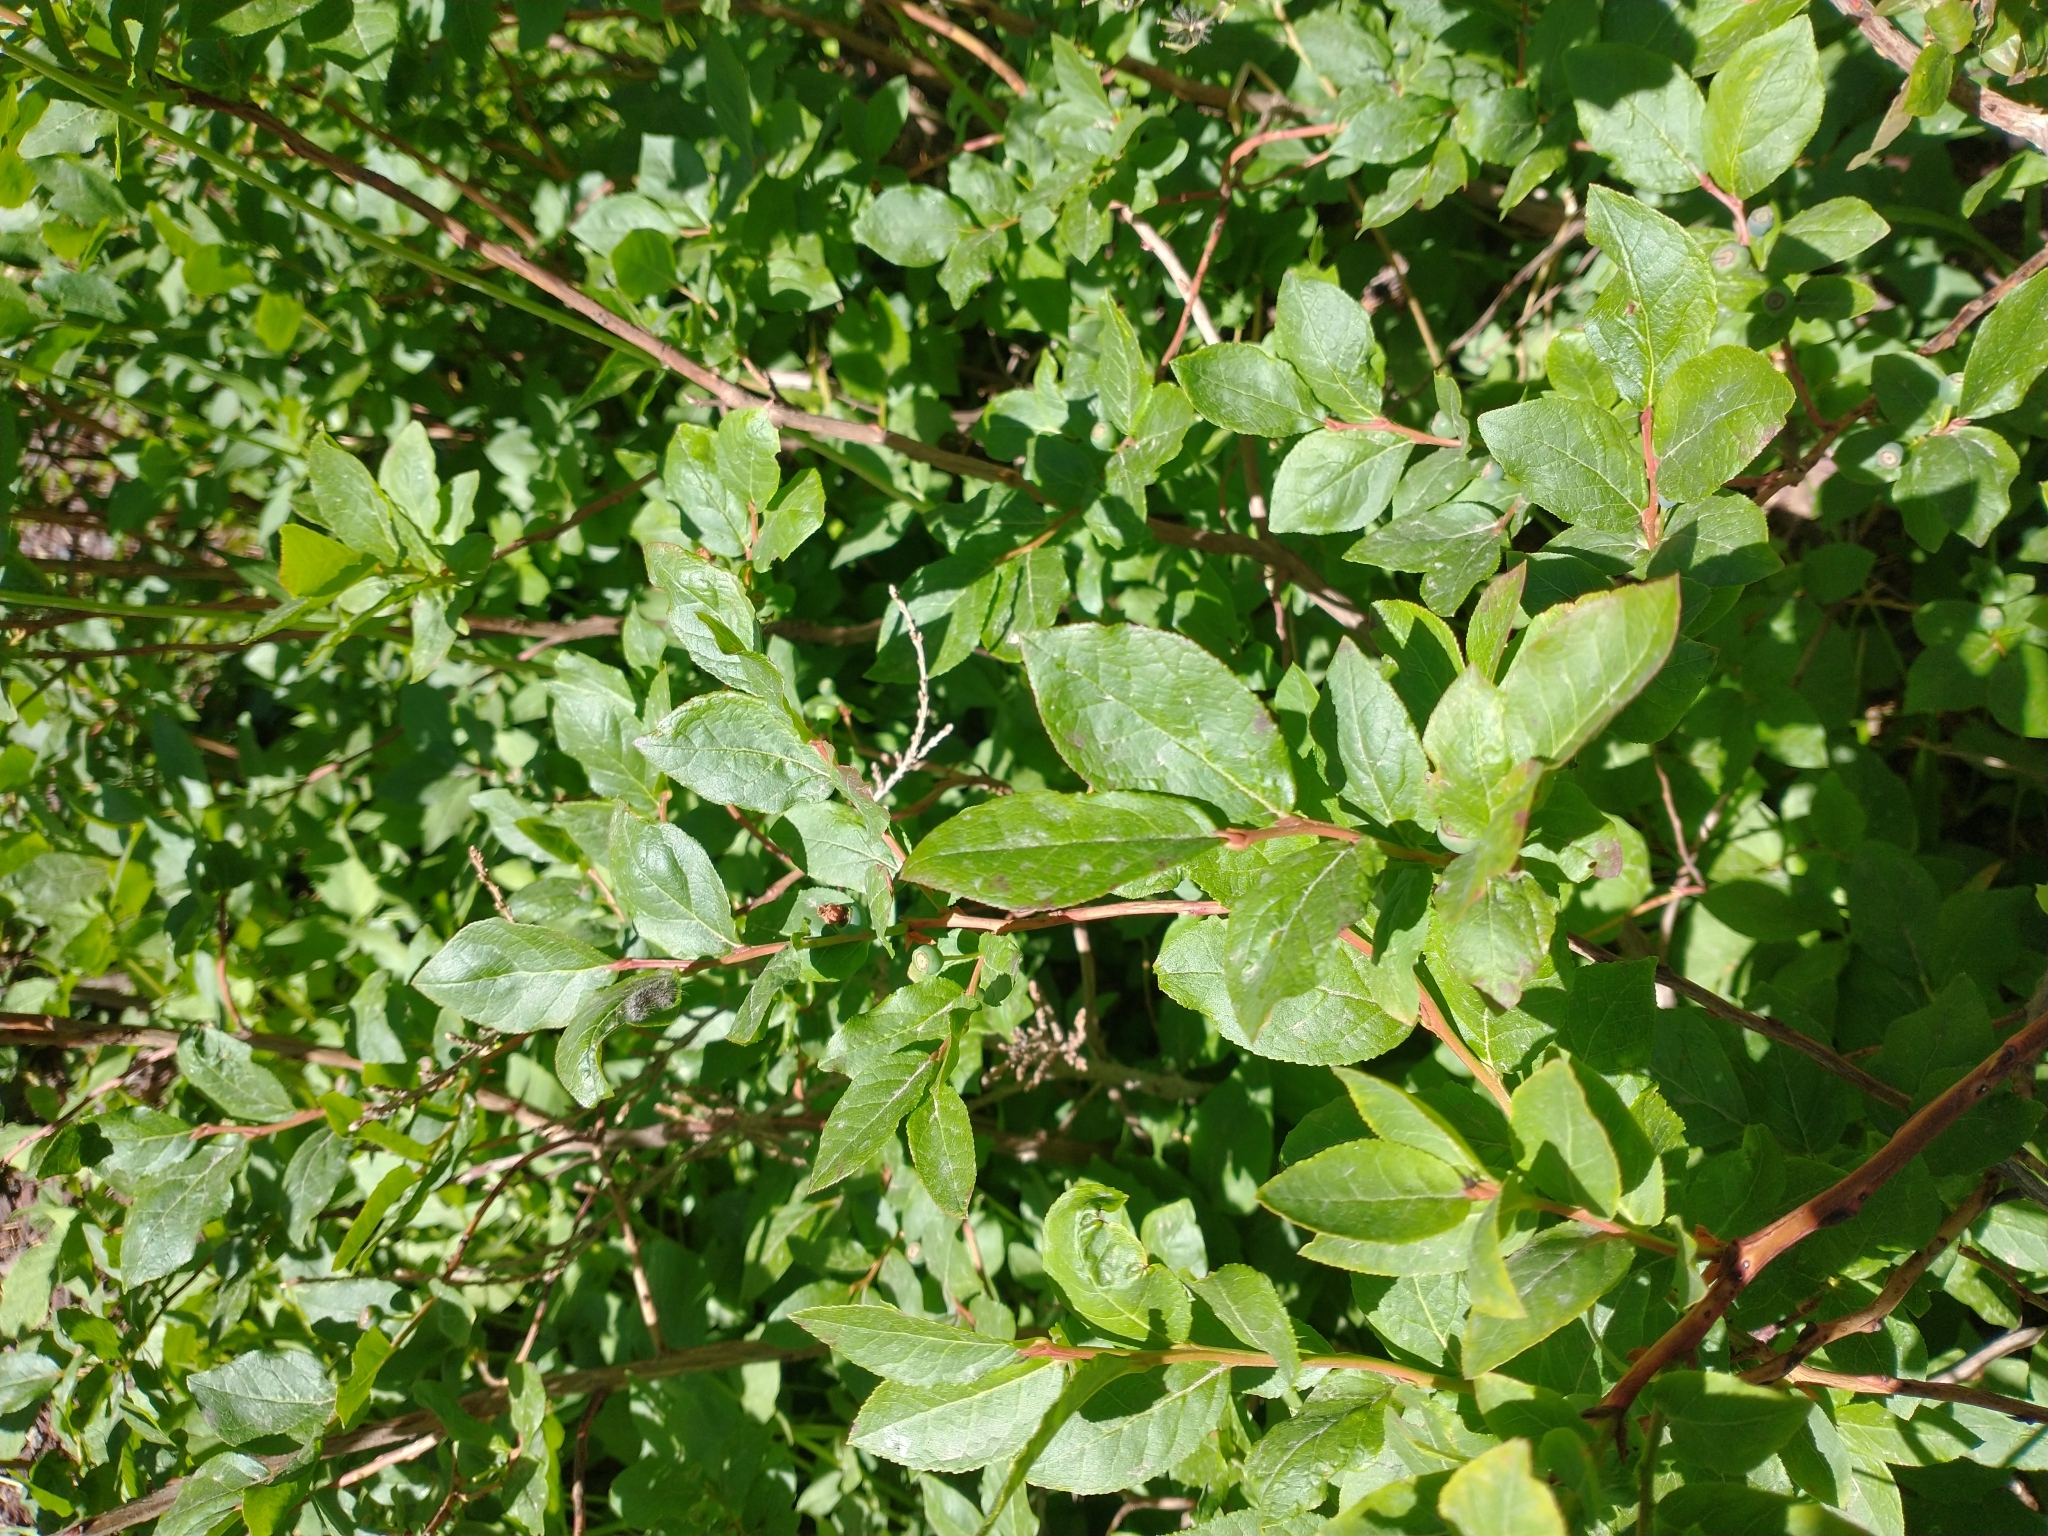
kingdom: Plantae
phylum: Tracheophyta
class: Magnoliopsida
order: Ericales
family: Ericaceae
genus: Vaccinium
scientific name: Vaccinium membranaceum
